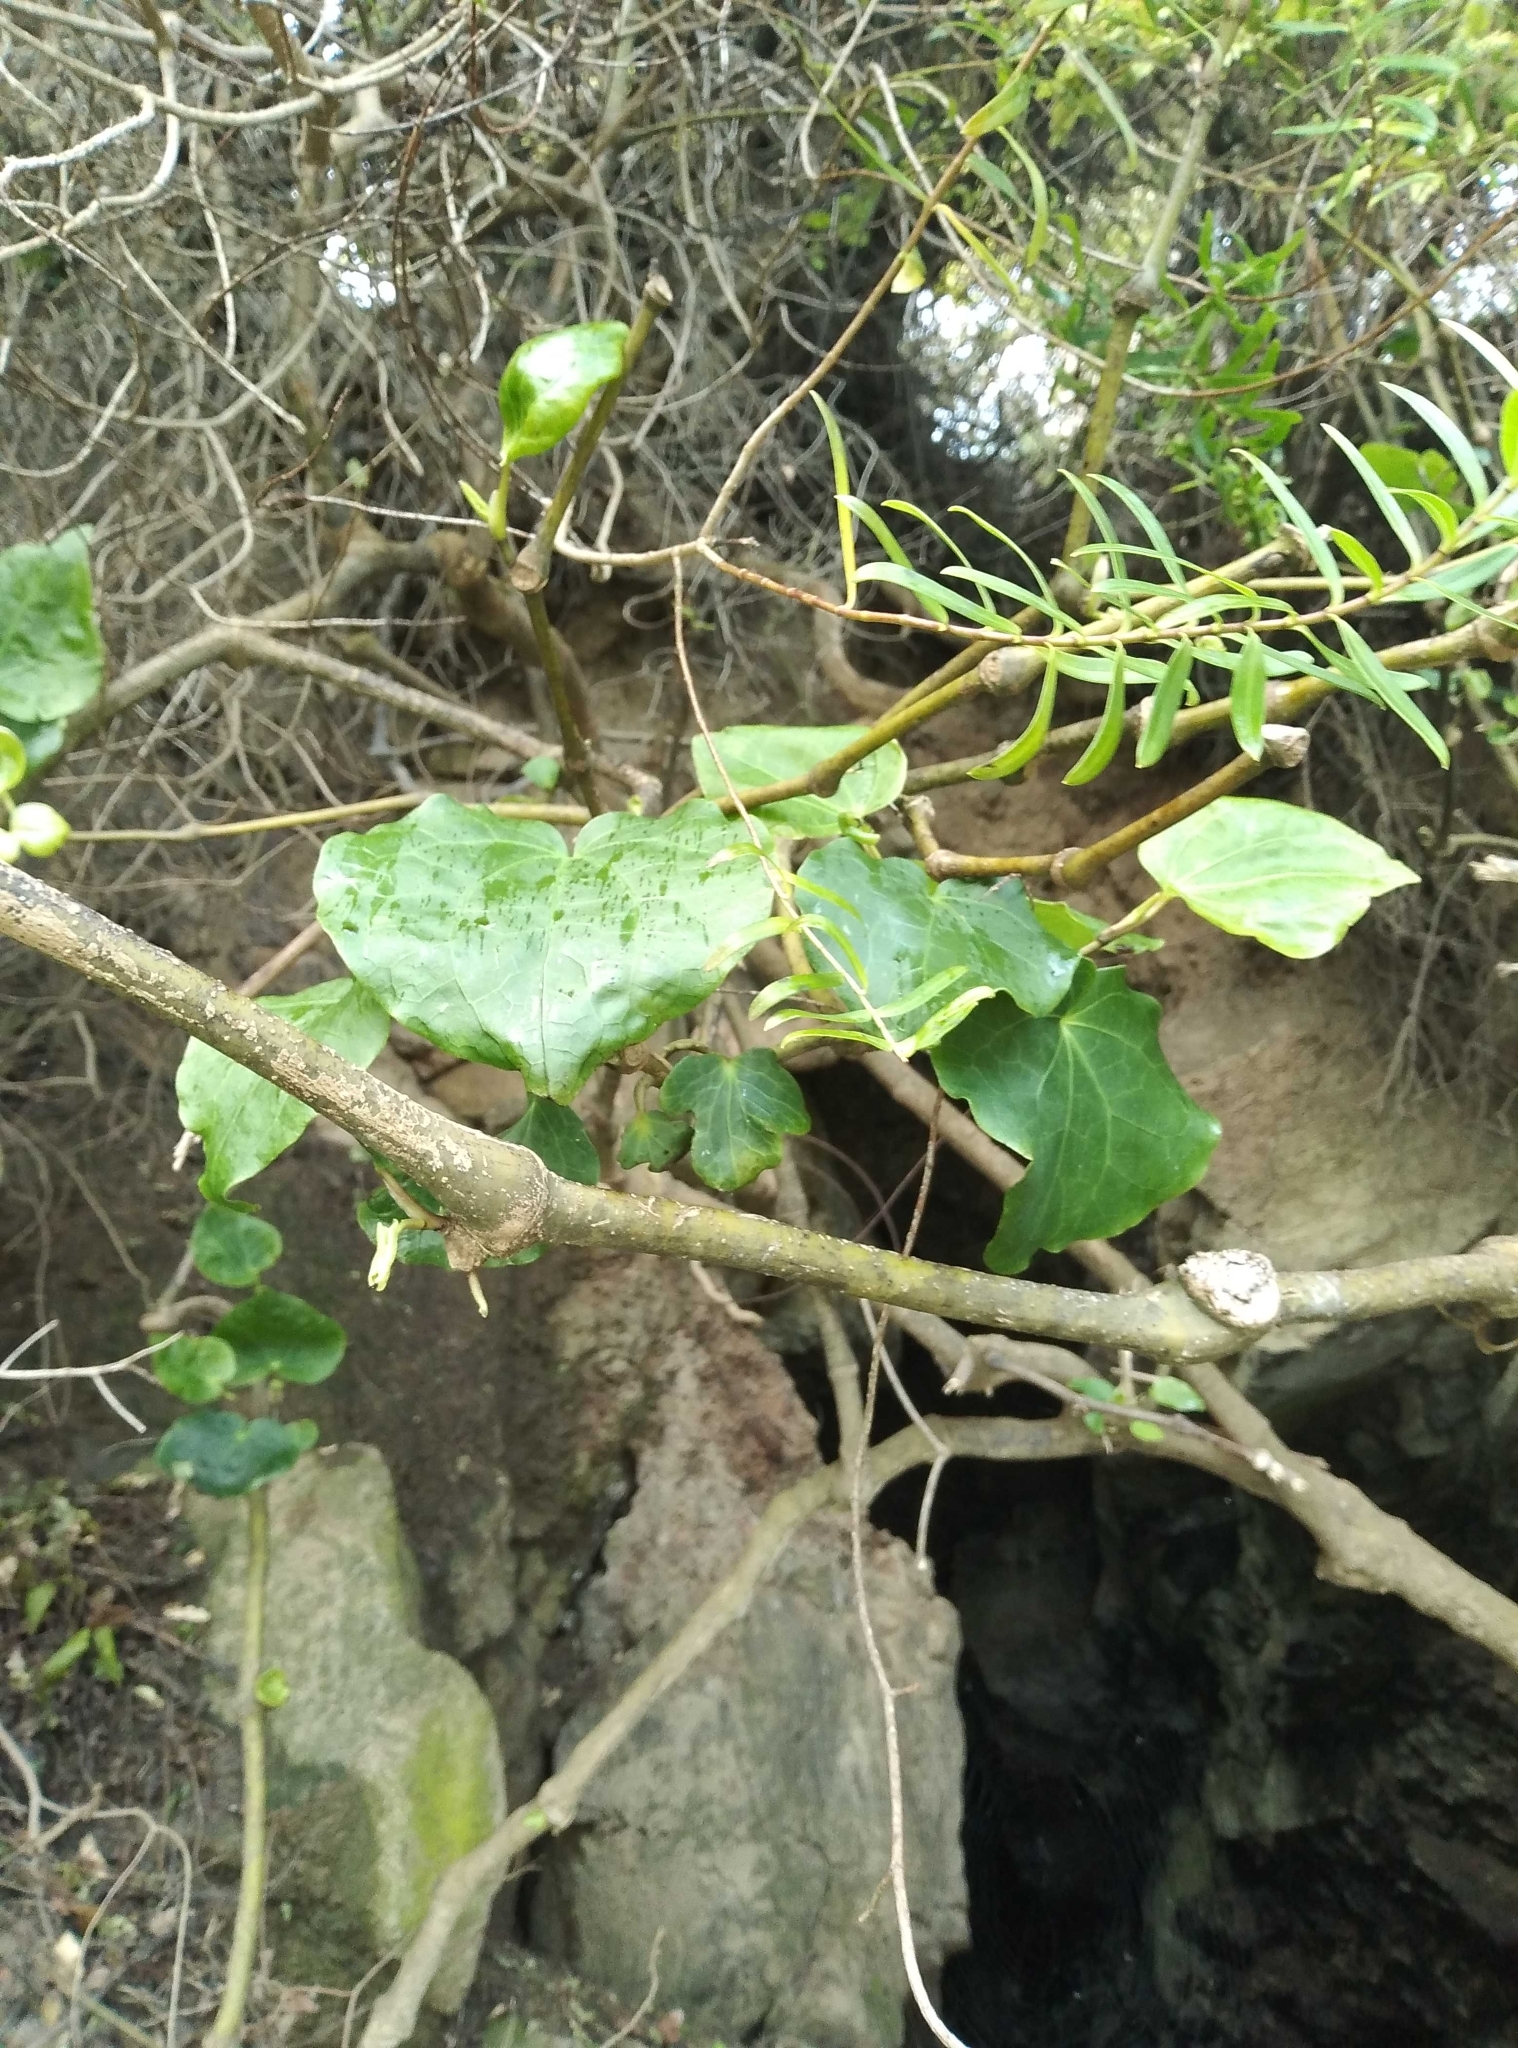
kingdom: Plantae
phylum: Tracheophyta
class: Magnoliopsida
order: Piperales
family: Piperaceae
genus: Macropiper
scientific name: Macropiper excelsum
